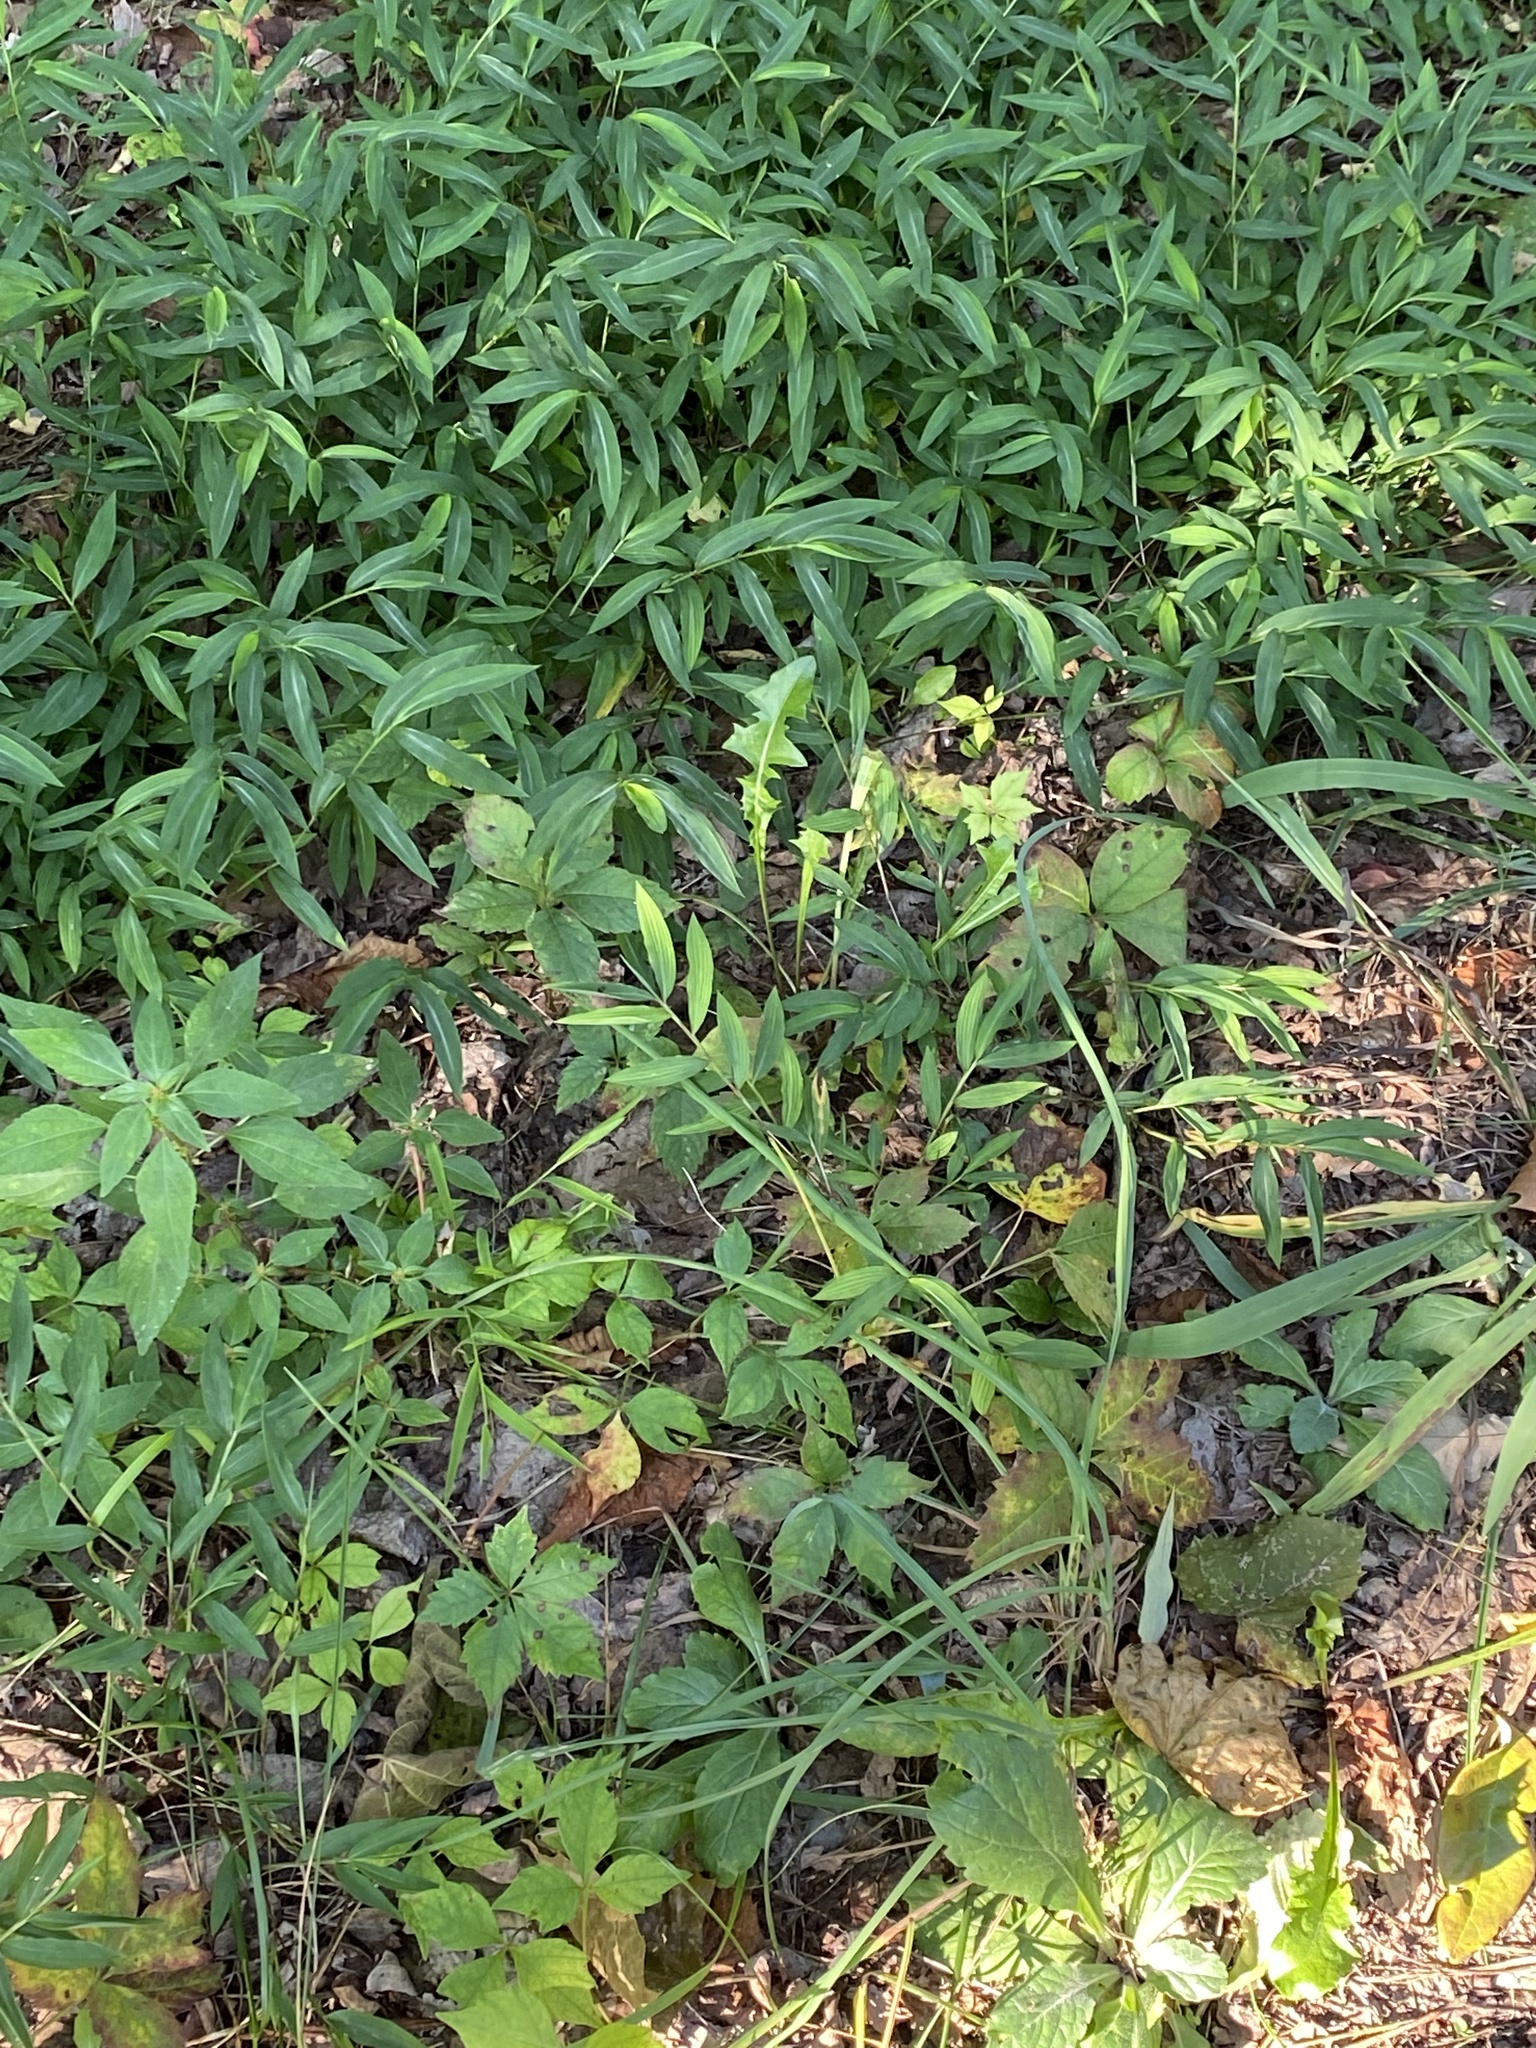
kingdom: Plantae
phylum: Tracheophyta
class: Liliopsida
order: Poales
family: Poaceae
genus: Microstegium
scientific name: Microstegium vimineum
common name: Japanese stiltgrass
